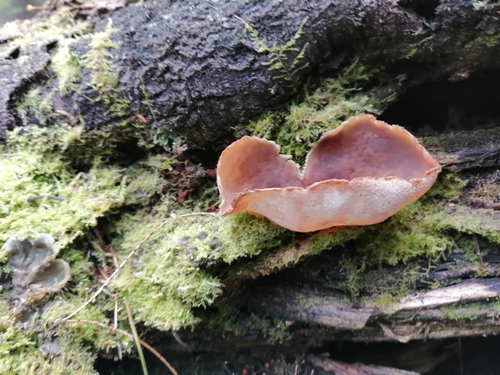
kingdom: Fungi
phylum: Ascomycota
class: Pezizomycetes
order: Pezizales
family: Pezizaceae
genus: Peziza
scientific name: Peziza varia
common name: Layered cup
